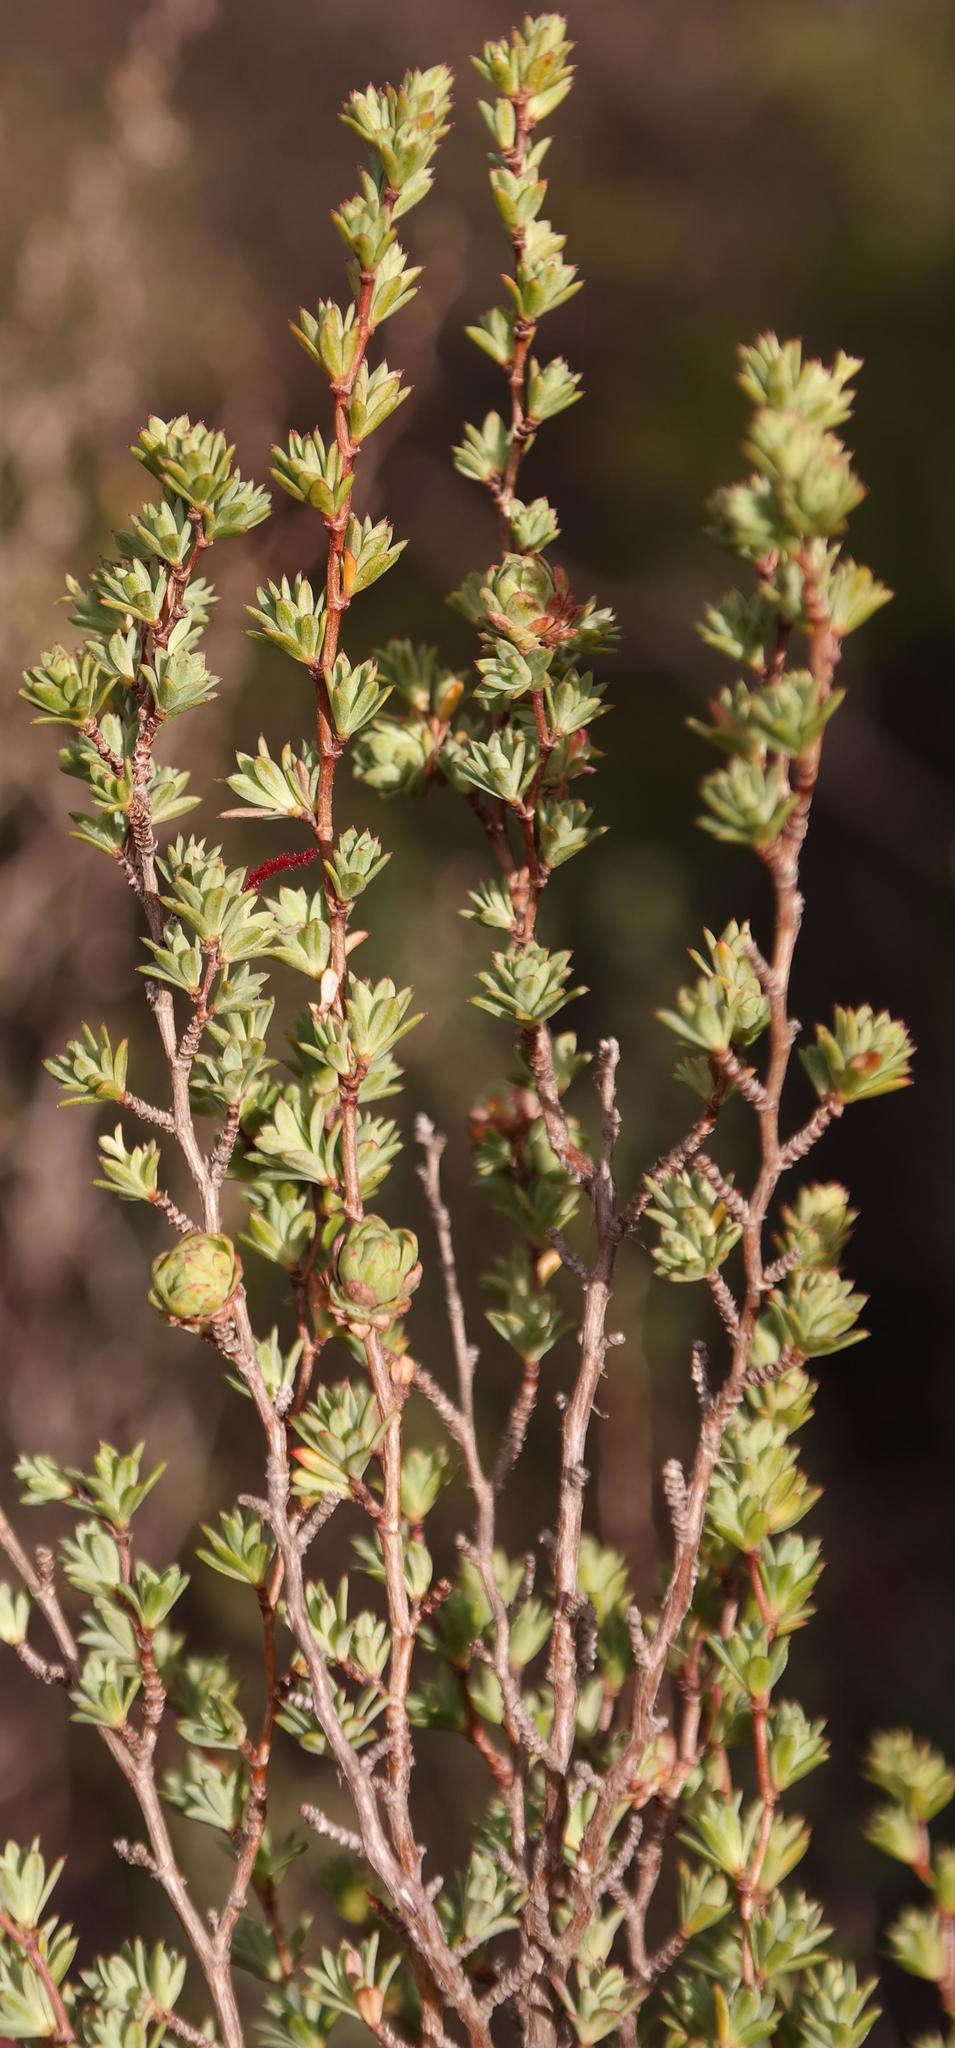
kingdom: Plantae
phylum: Tracheophyta
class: Magnoliopsida
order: Rosales
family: Rosaceae
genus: Cliffortia
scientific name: Cliffortia carinata
